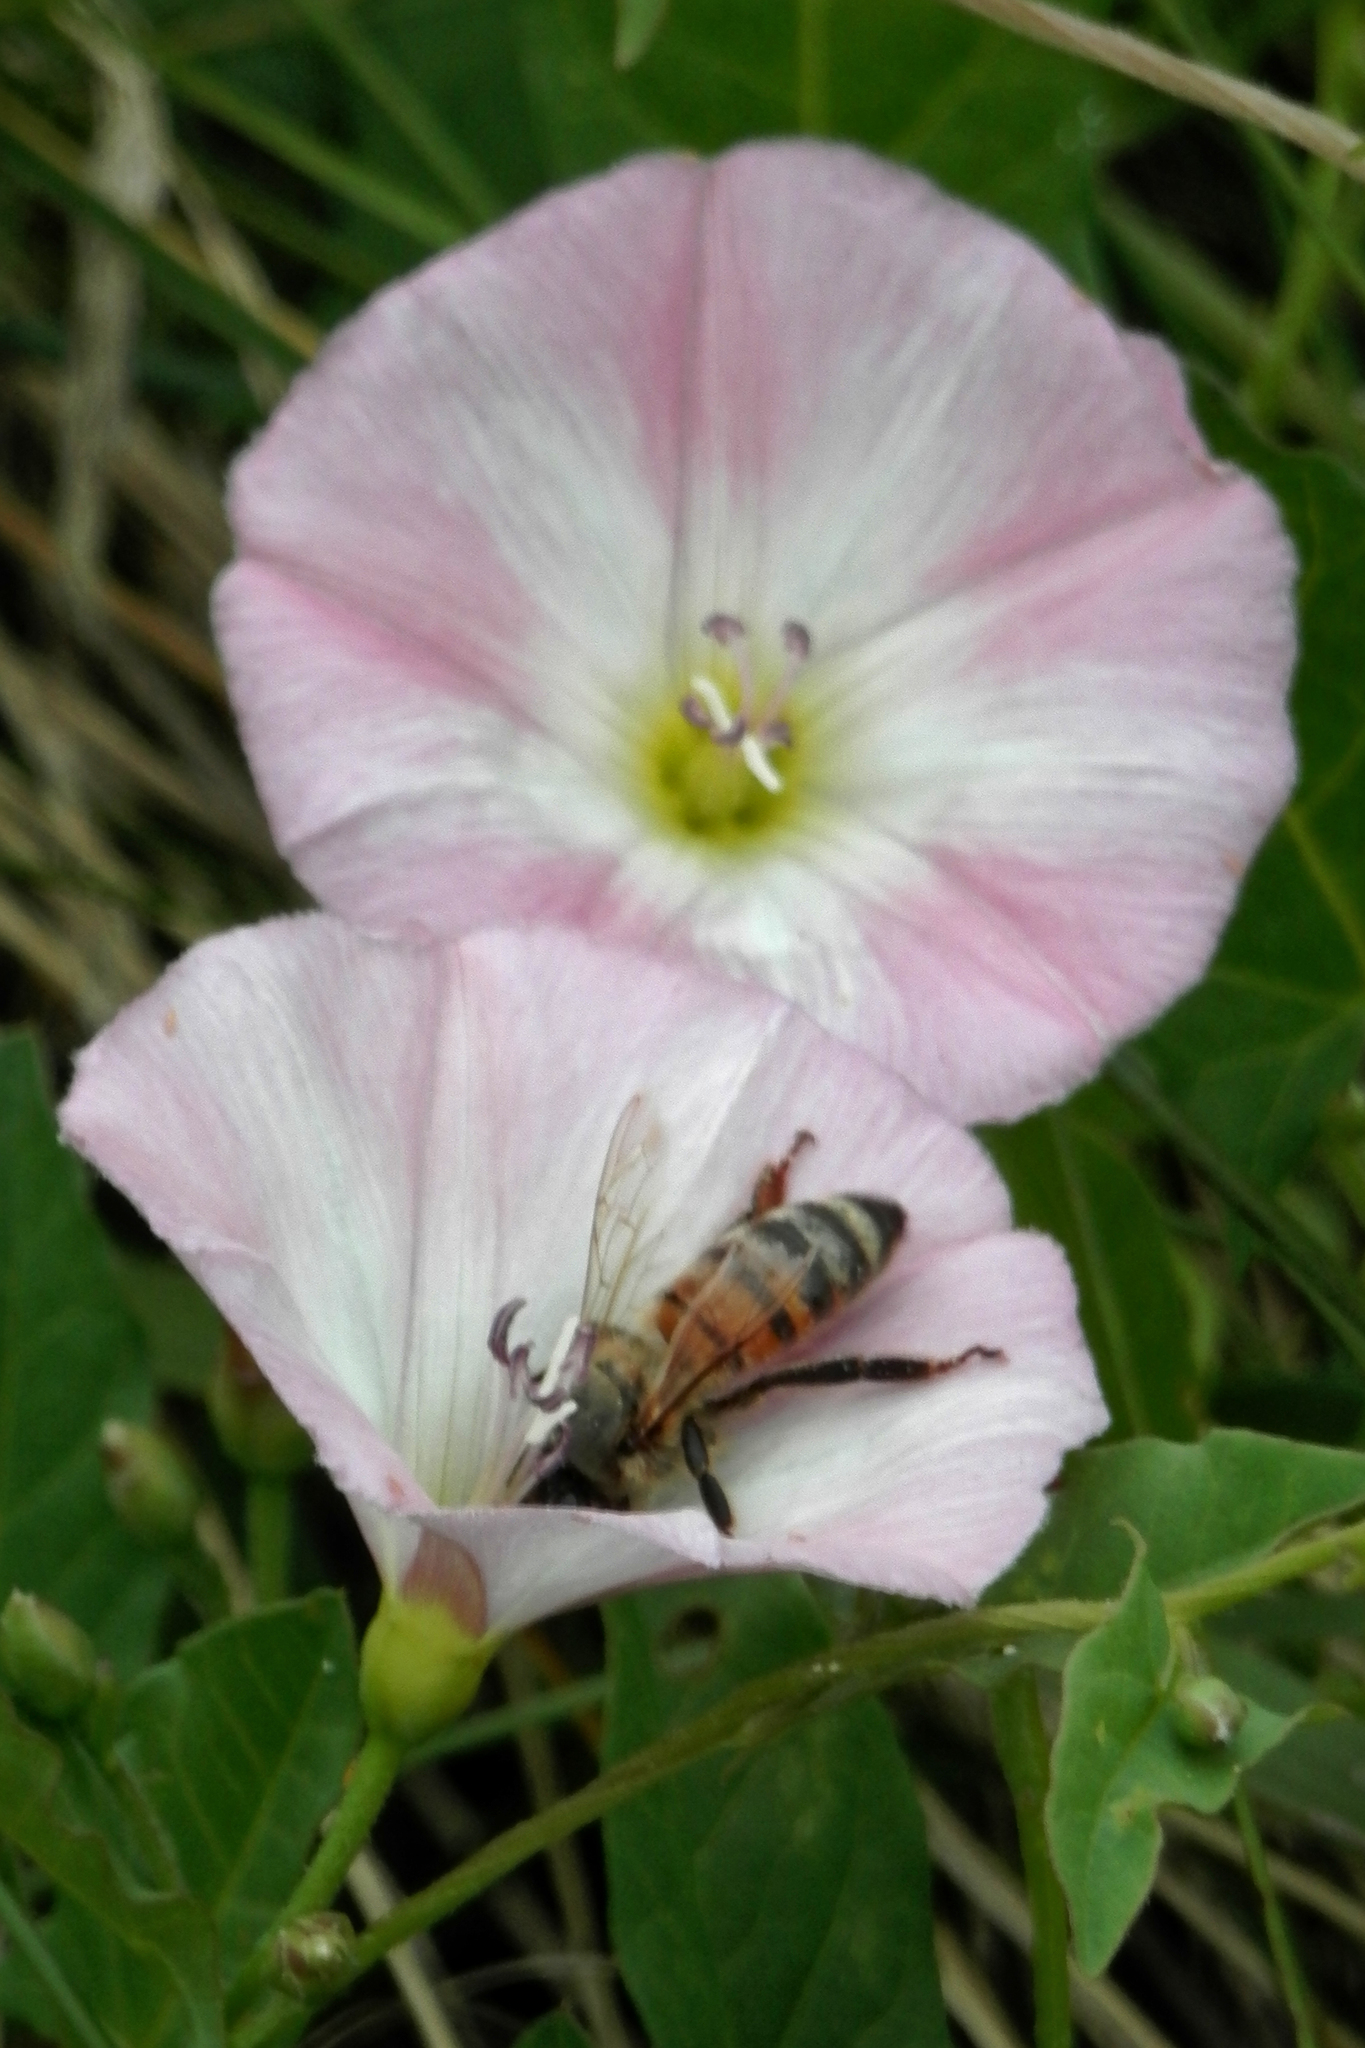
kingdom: Animalia
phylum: Arthropoda
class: Insecta
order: Hymenoptera
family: Apidae
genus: Apis
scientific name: Apis mellifera
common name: Honey bee
